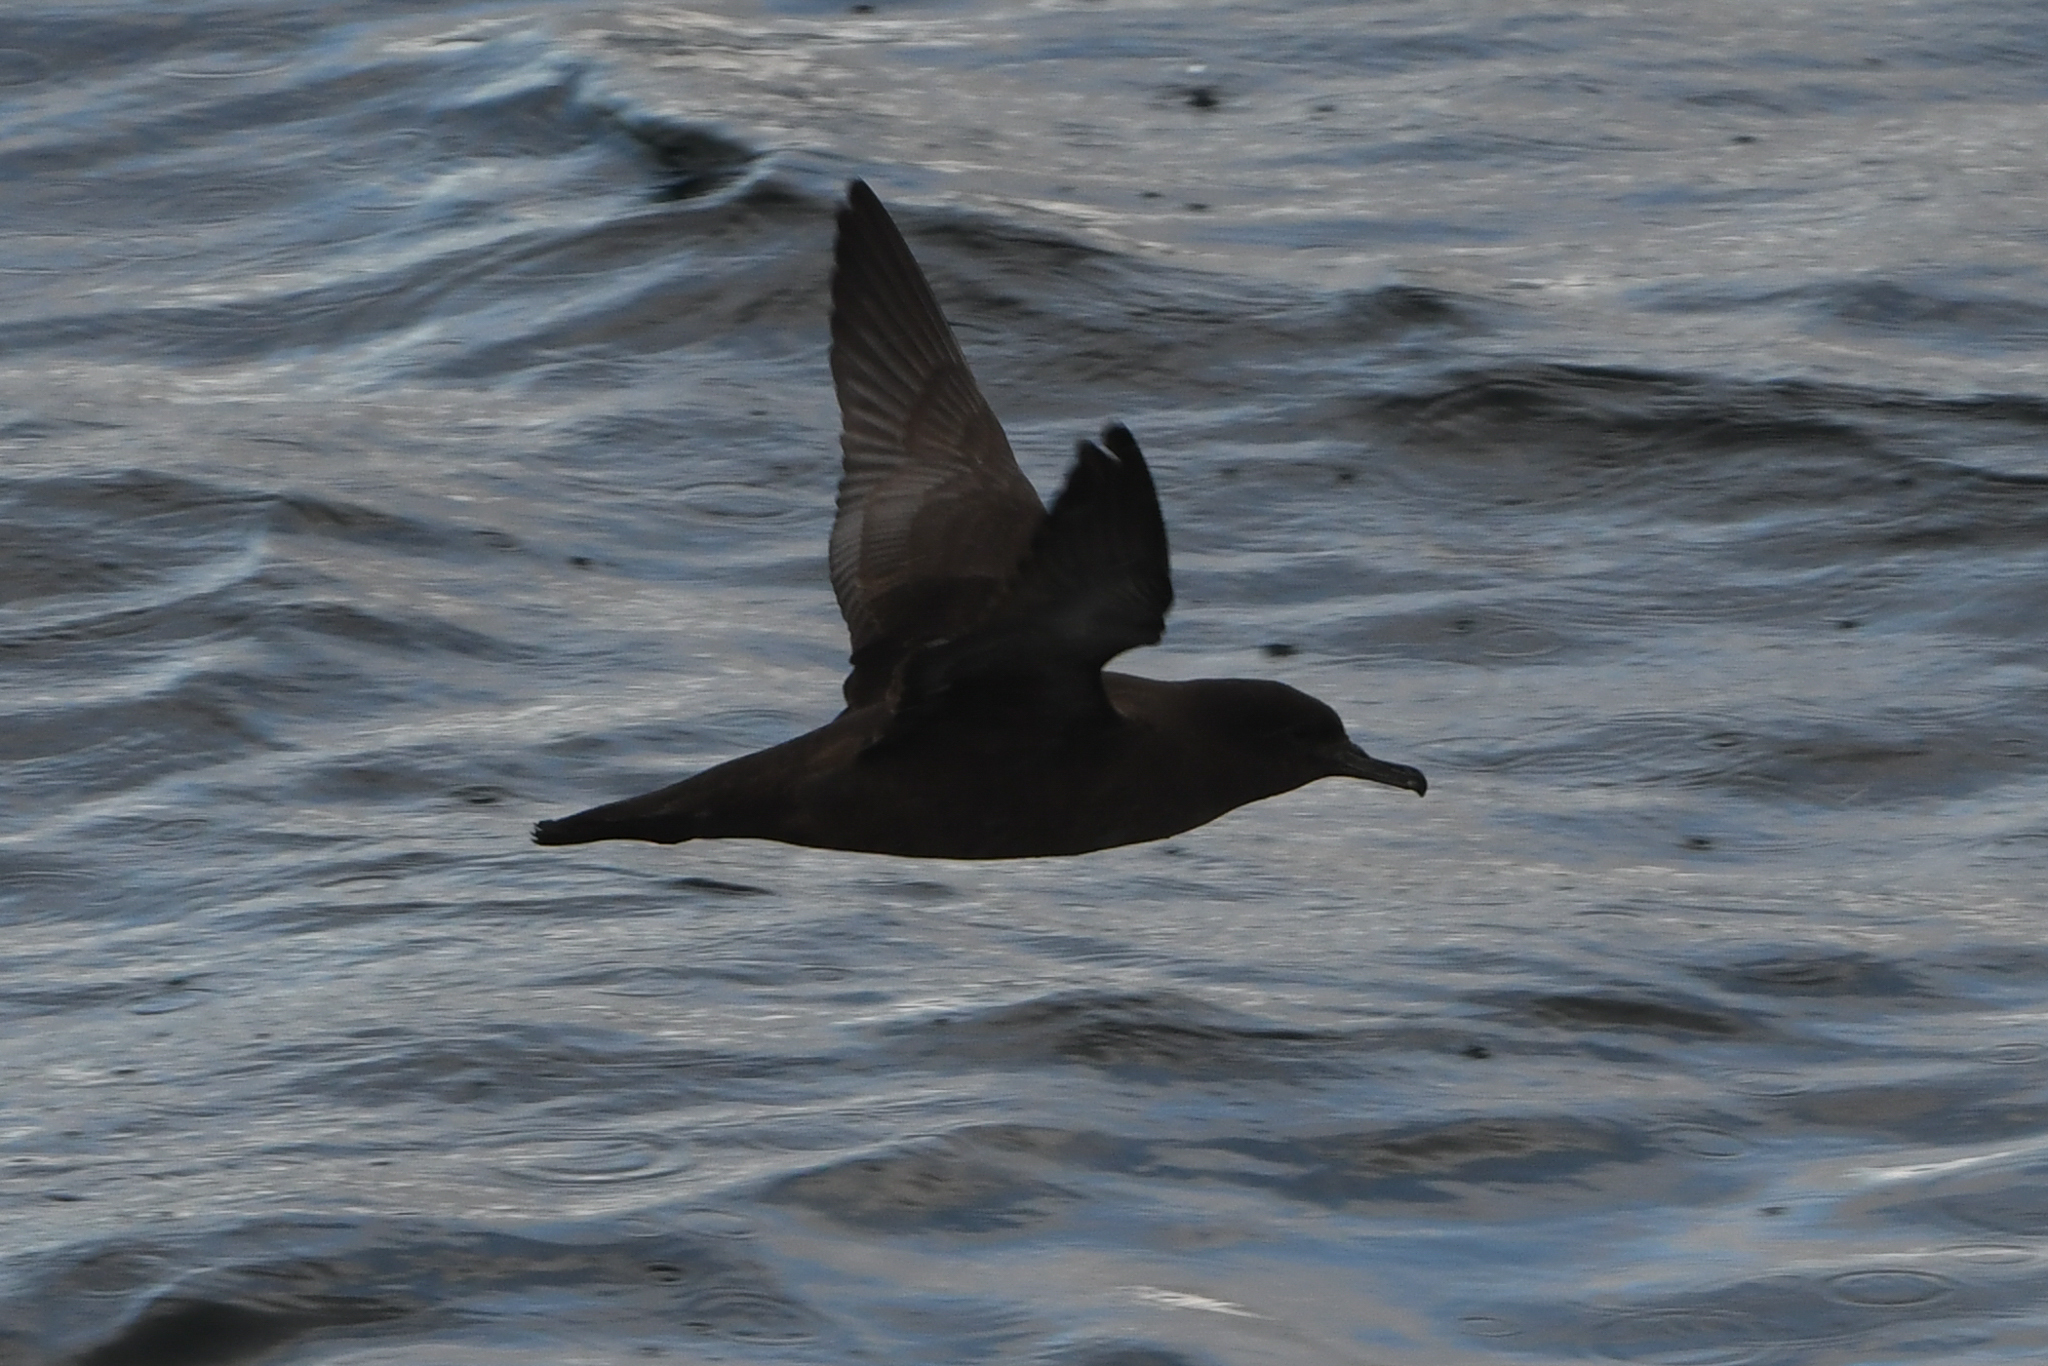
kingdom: Animalia
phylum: Chordata
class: Aves
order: Procellariiformes
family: Procellariidae
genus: Puffinus
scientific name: Puffinus griseus
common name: Sooty shearwater
